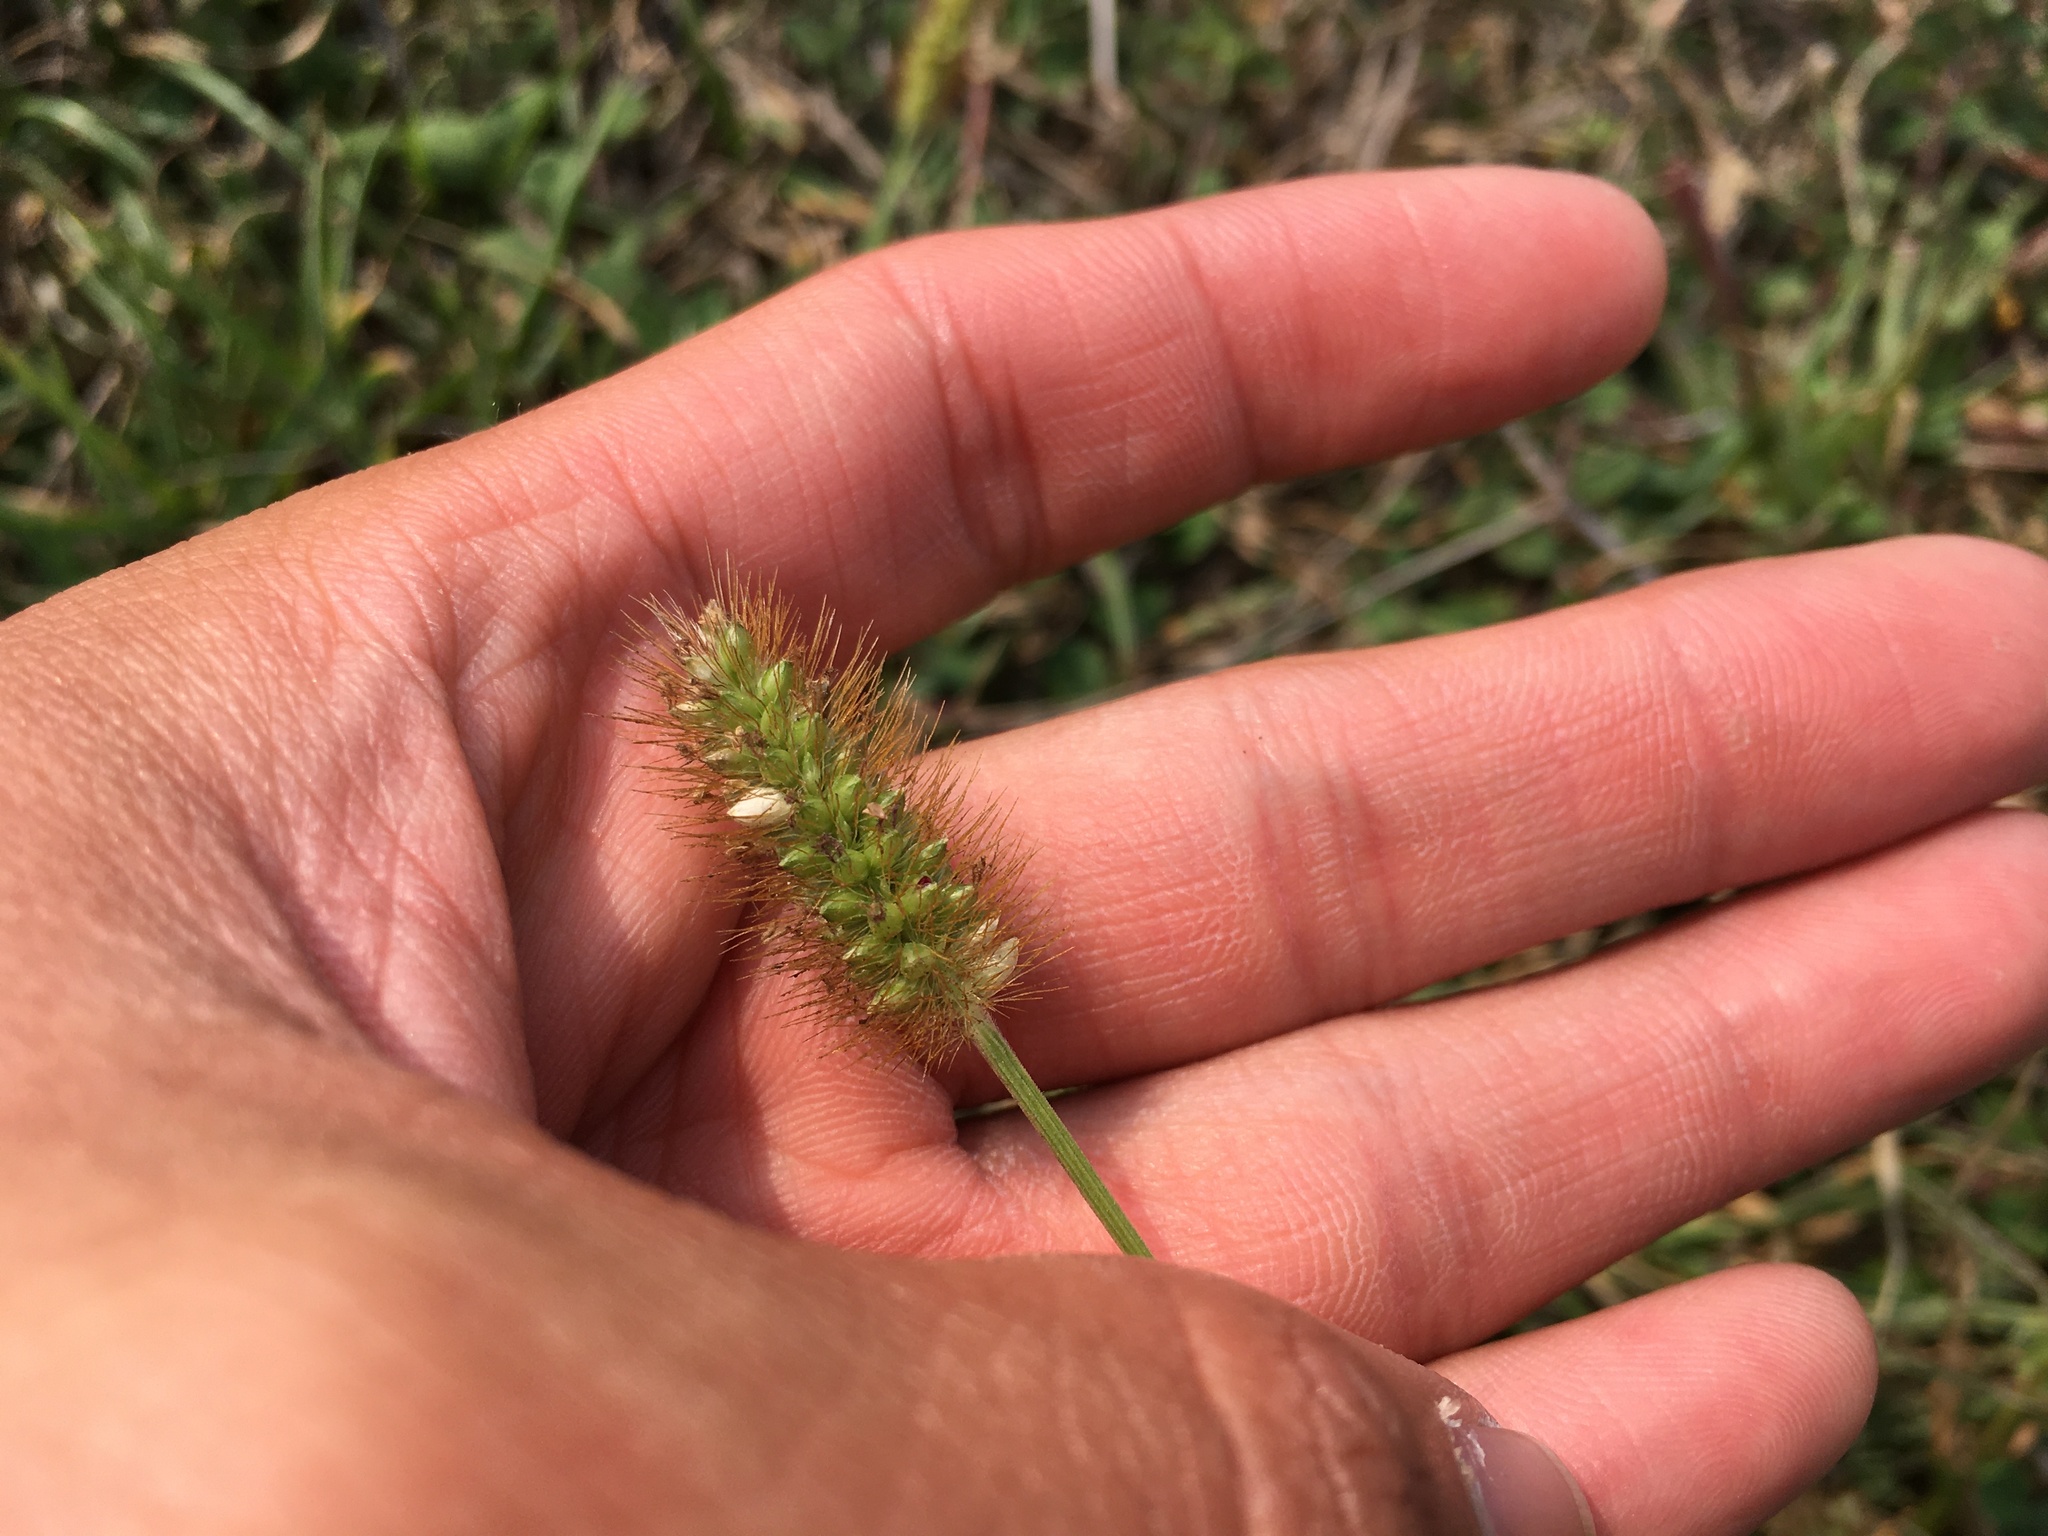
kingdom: Plantae
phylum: Tracheophyta
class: Liliopsida
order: Poales
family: Poaceae
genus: Setaria
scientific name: Setaria pumila
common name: Yellow bristle-grass
